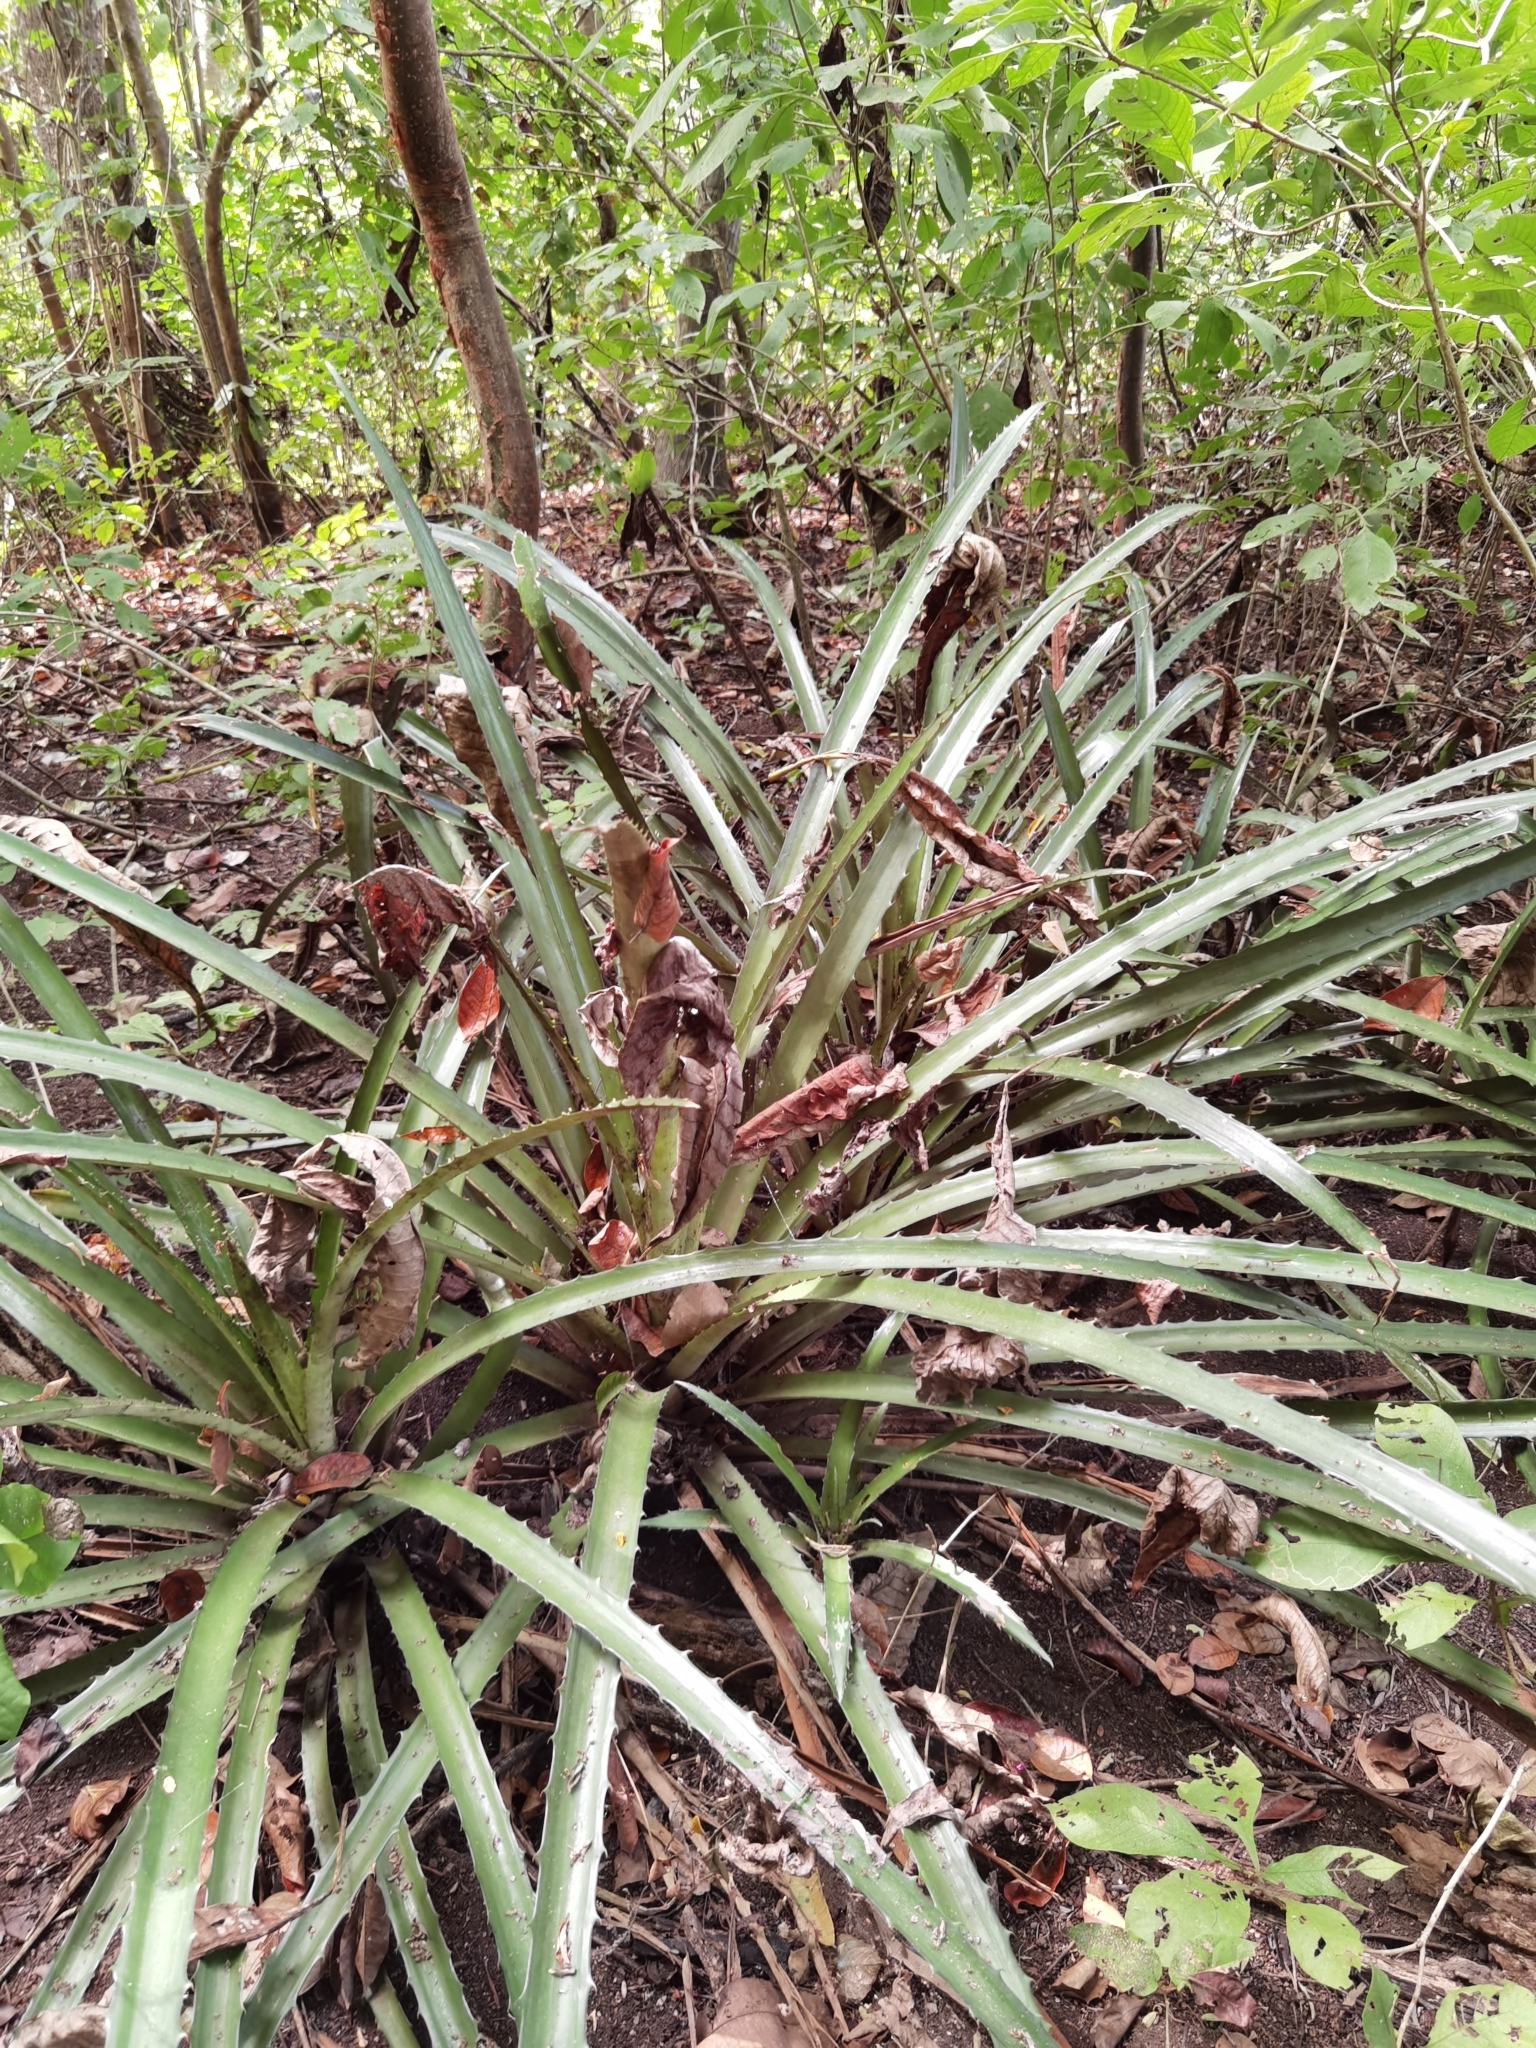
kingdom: Plantae
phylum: Tracheophyta
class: Liliopsida
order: Poales
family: Bromeliaceae
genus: Bromelia
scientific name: Bromelia pinguin
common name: Pinguin
